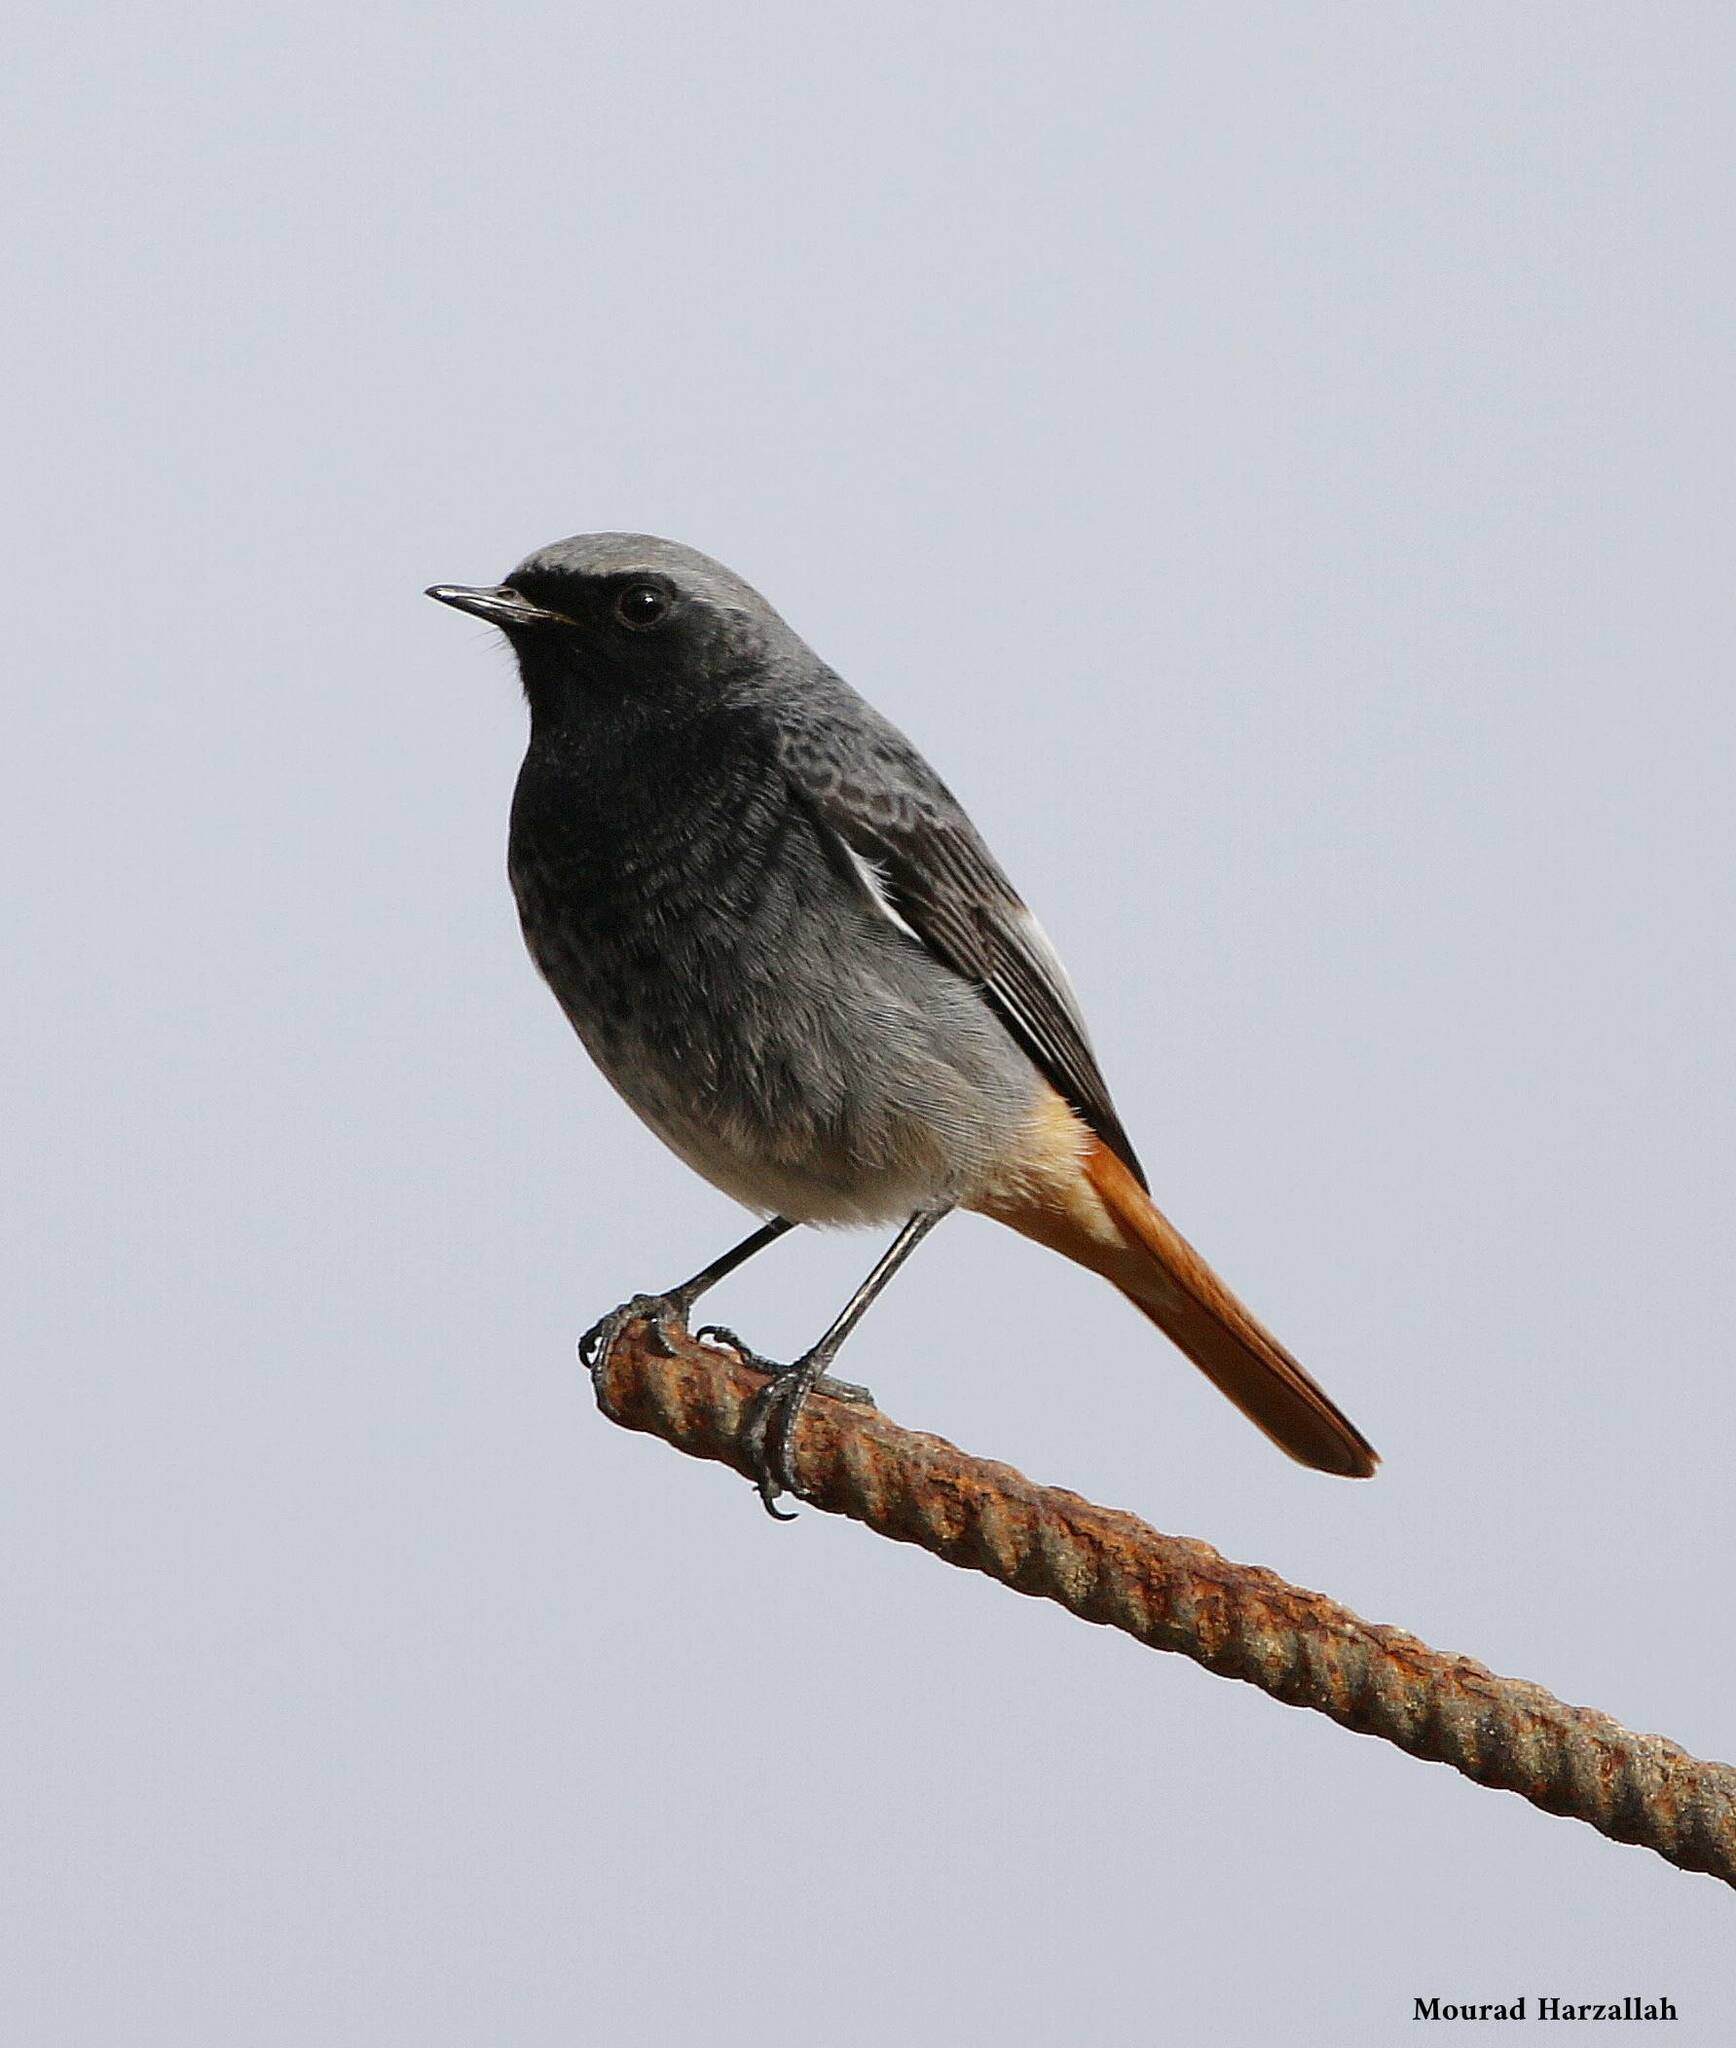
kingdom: Animalia
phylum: Chordata
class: Aves
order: Passeriformes
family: Muscicapidae
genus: Phoenicurus
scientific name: Phoenicurus ochruros
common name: Black redstart
